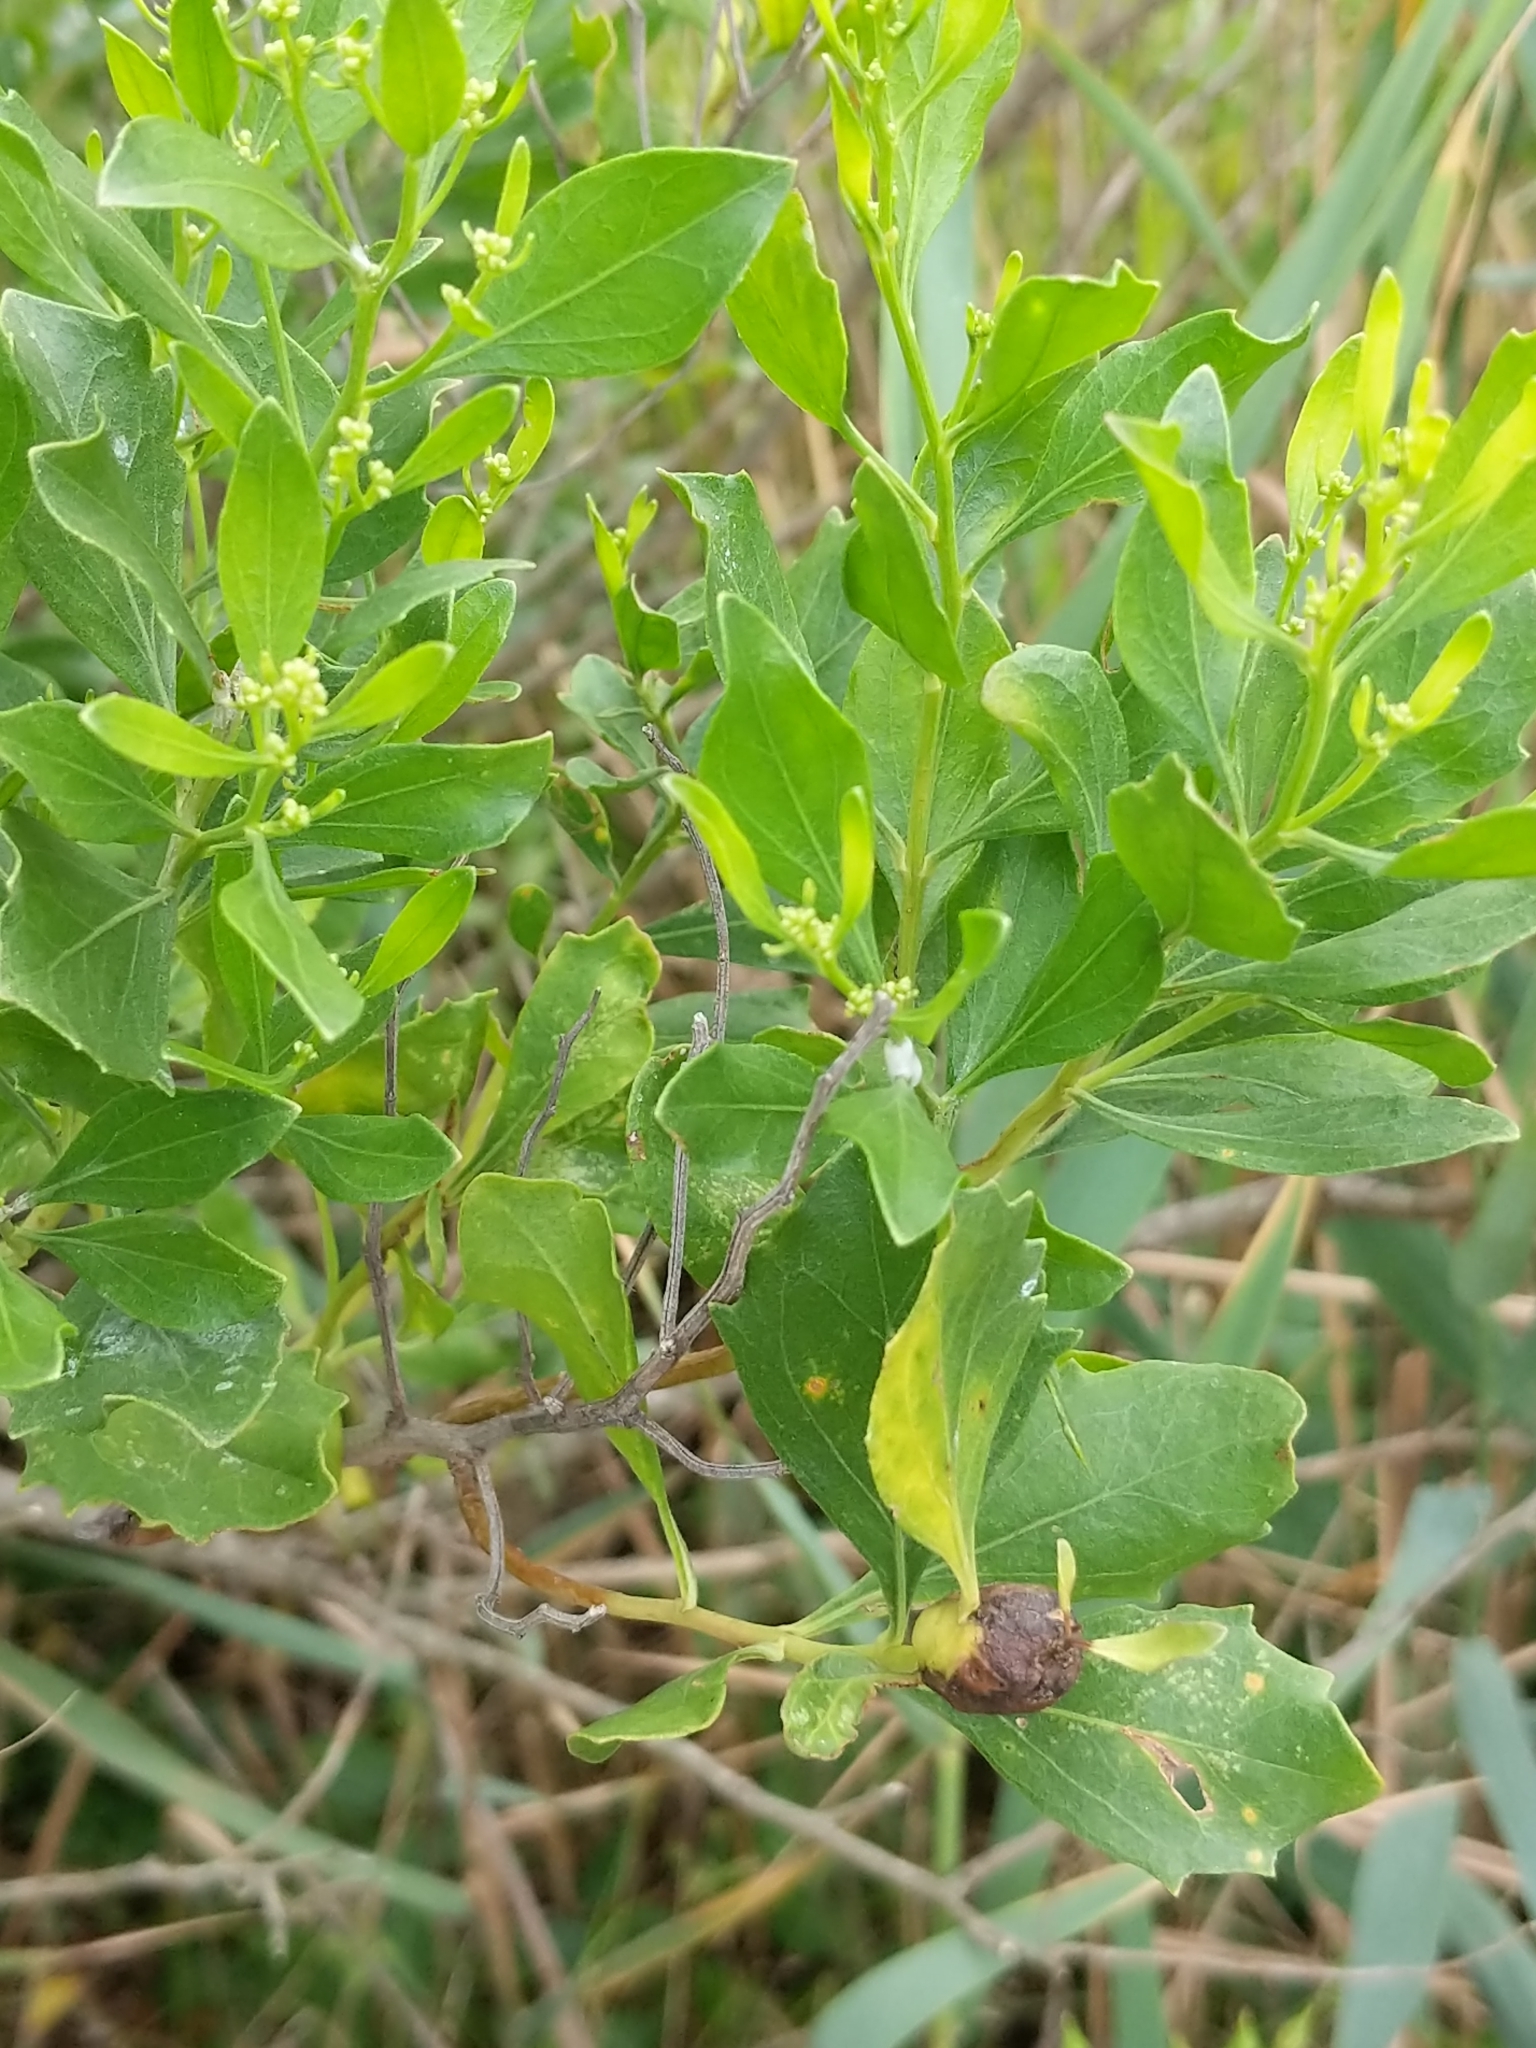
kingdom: Plantae
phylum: Tracheophyta
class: Magnoliopsida
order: Asterales
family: Asteraceae
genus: Baccharis
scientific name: Baccharis halimifolia
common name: Eastern baccharis
